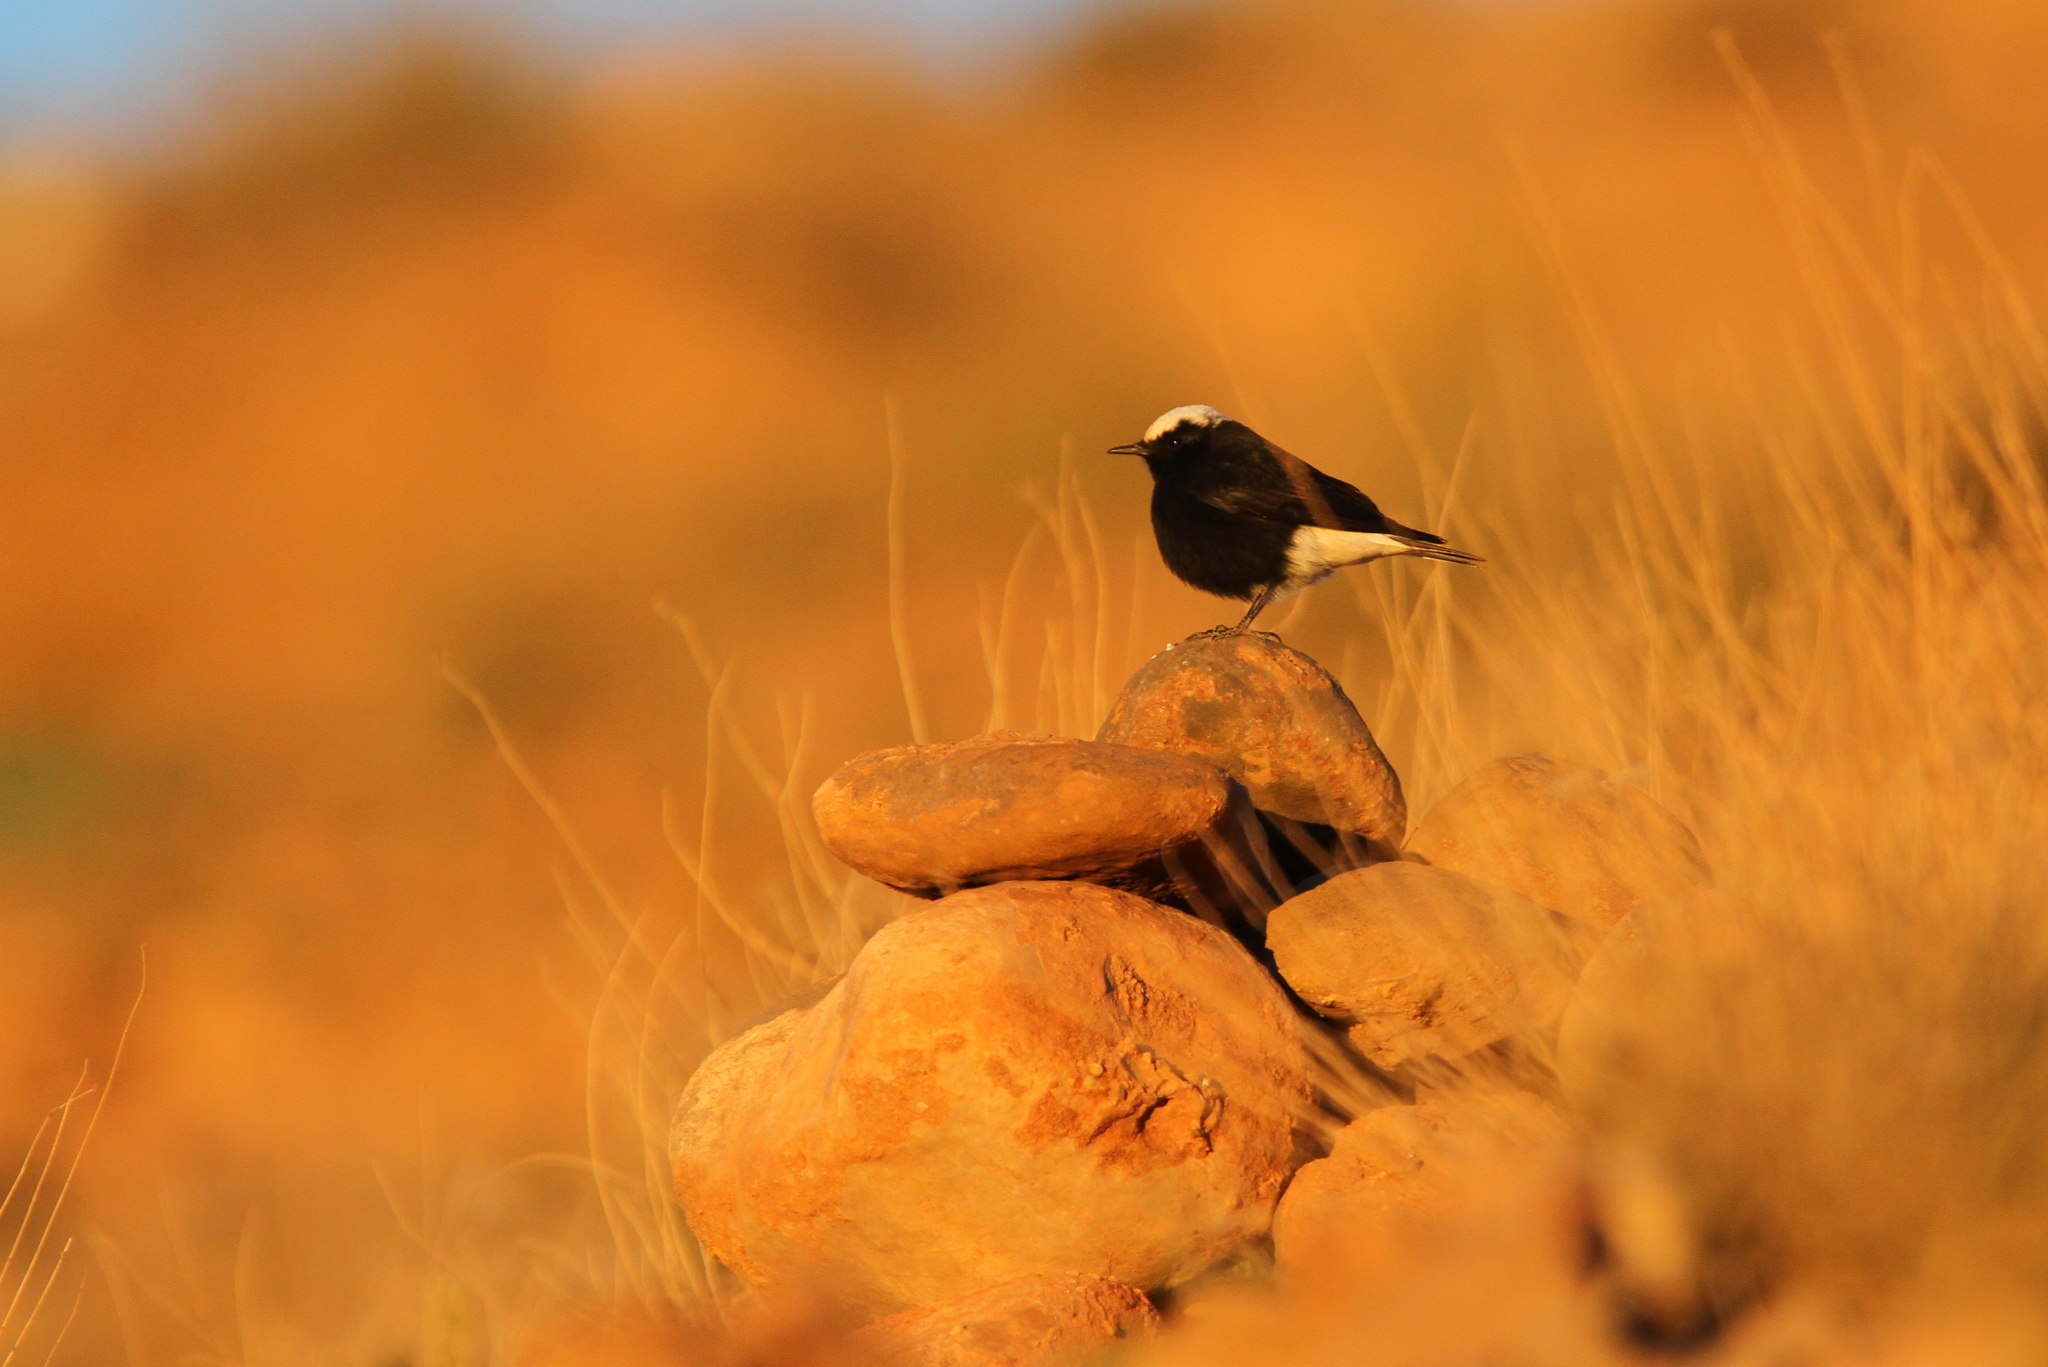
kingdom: Animalia
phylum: Chordata
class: Aves
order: Passeriformes
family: Muscicapidae
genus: Oenanthe
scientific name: Oenanthe leucopyga
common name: White-crowned wheatear
